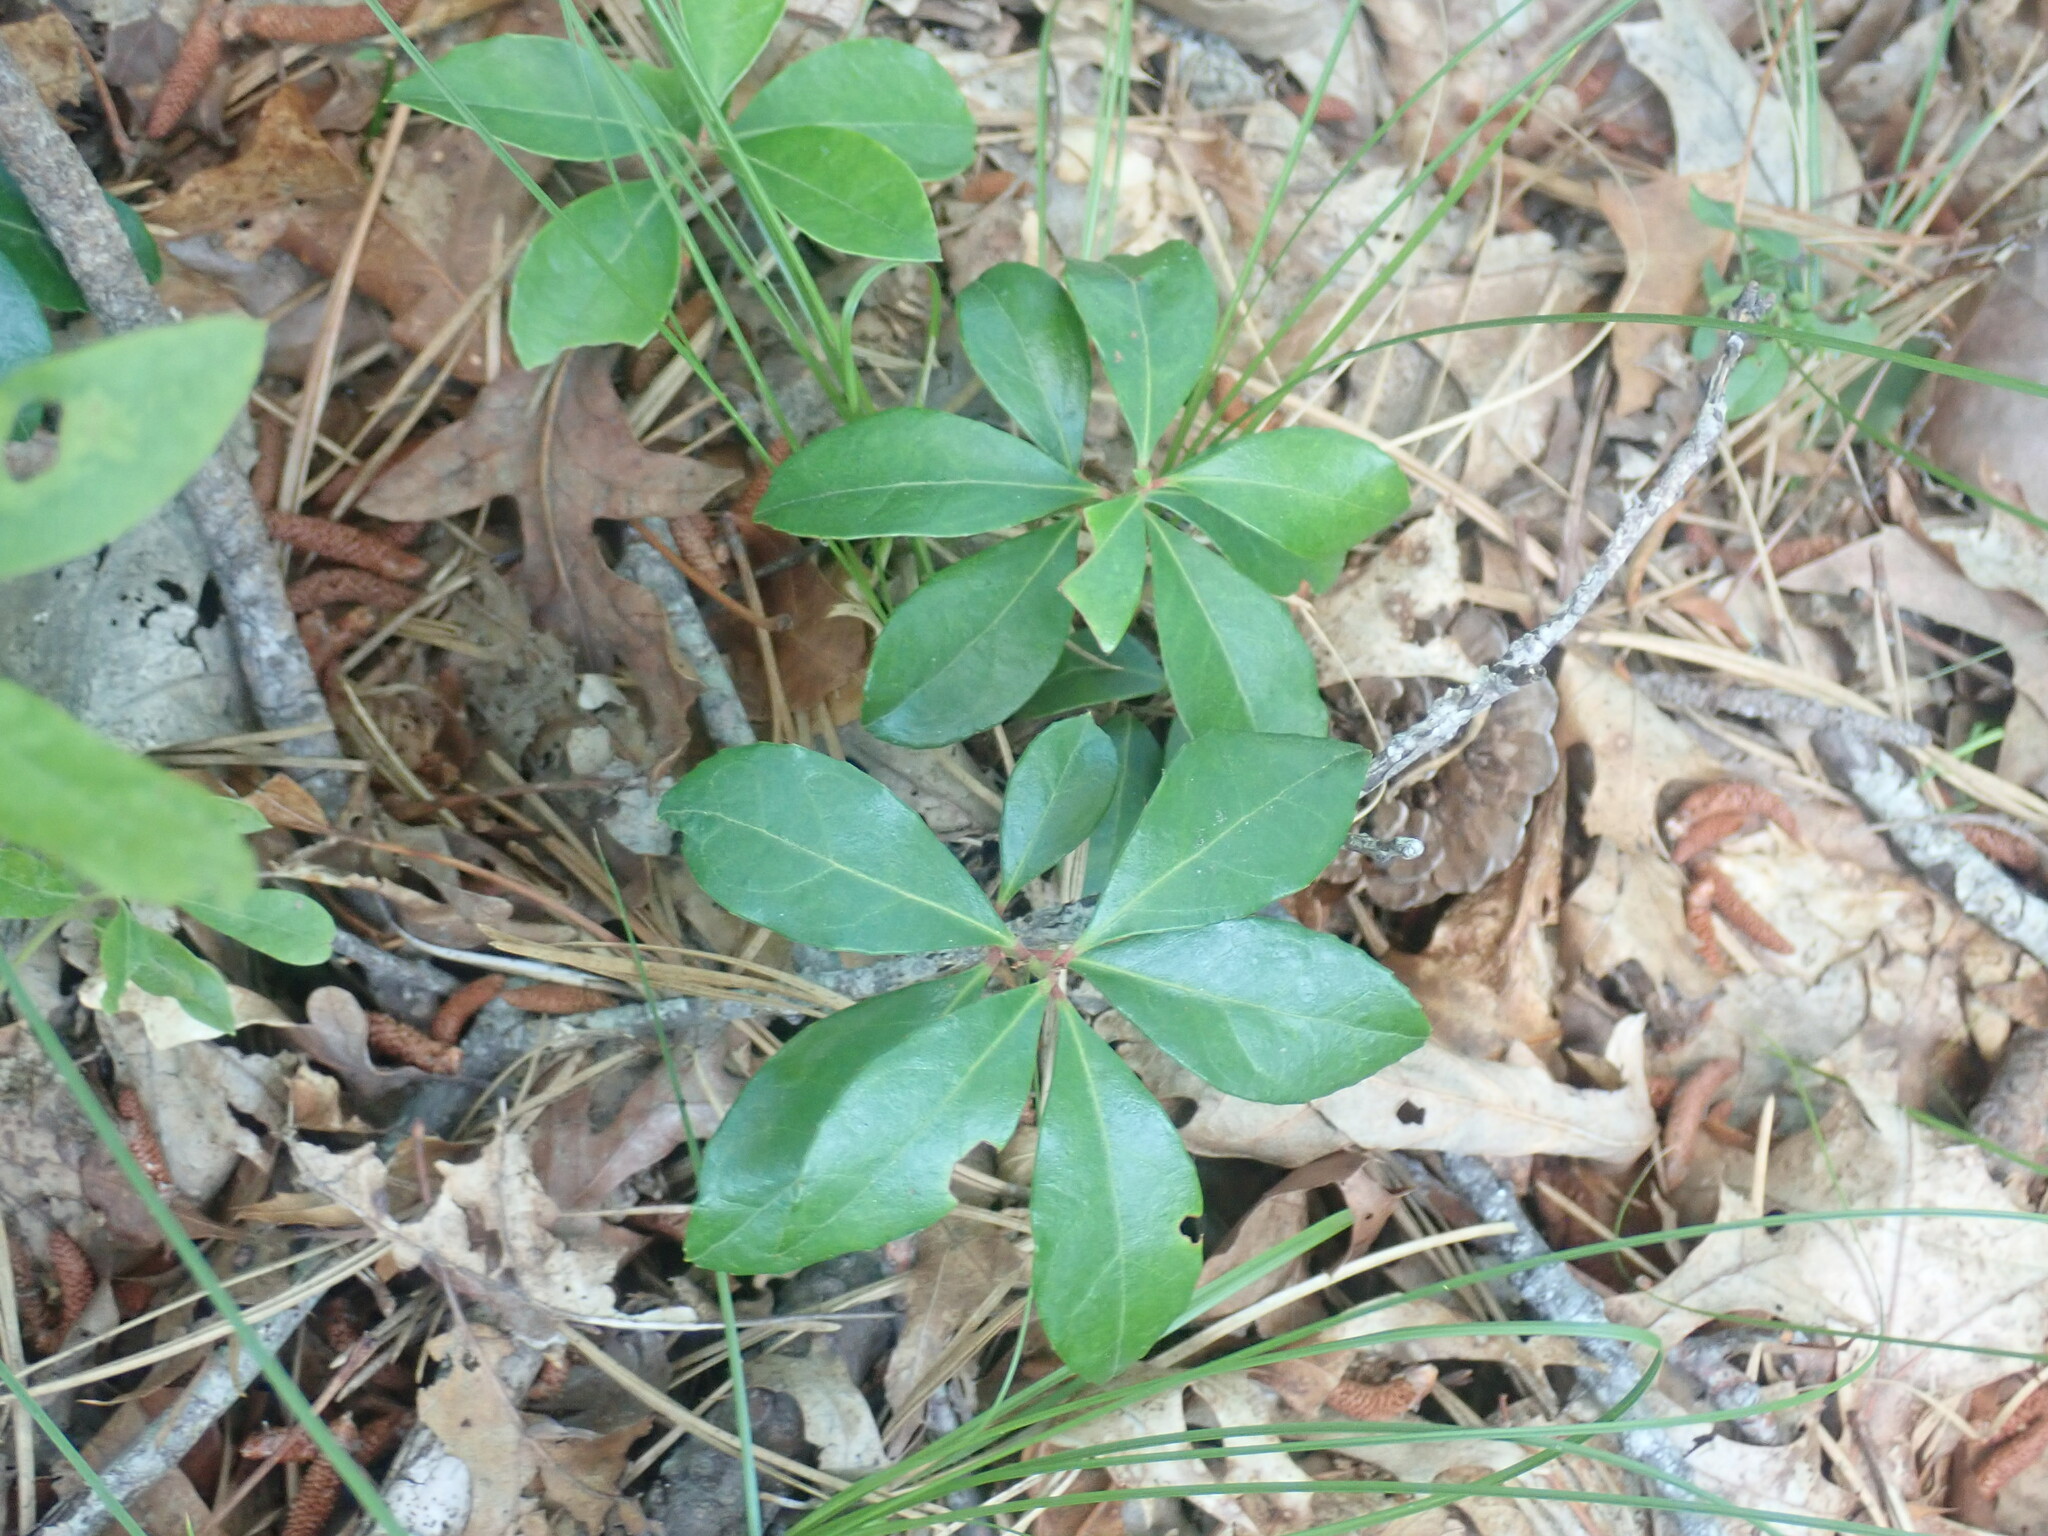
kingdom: Plantae
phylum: Tracheophyta
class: Magnoliopsida
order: Ericales
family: Ericaceae
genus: Gaultheria
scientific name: Gaultheria procumbens
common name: Checkerberry
